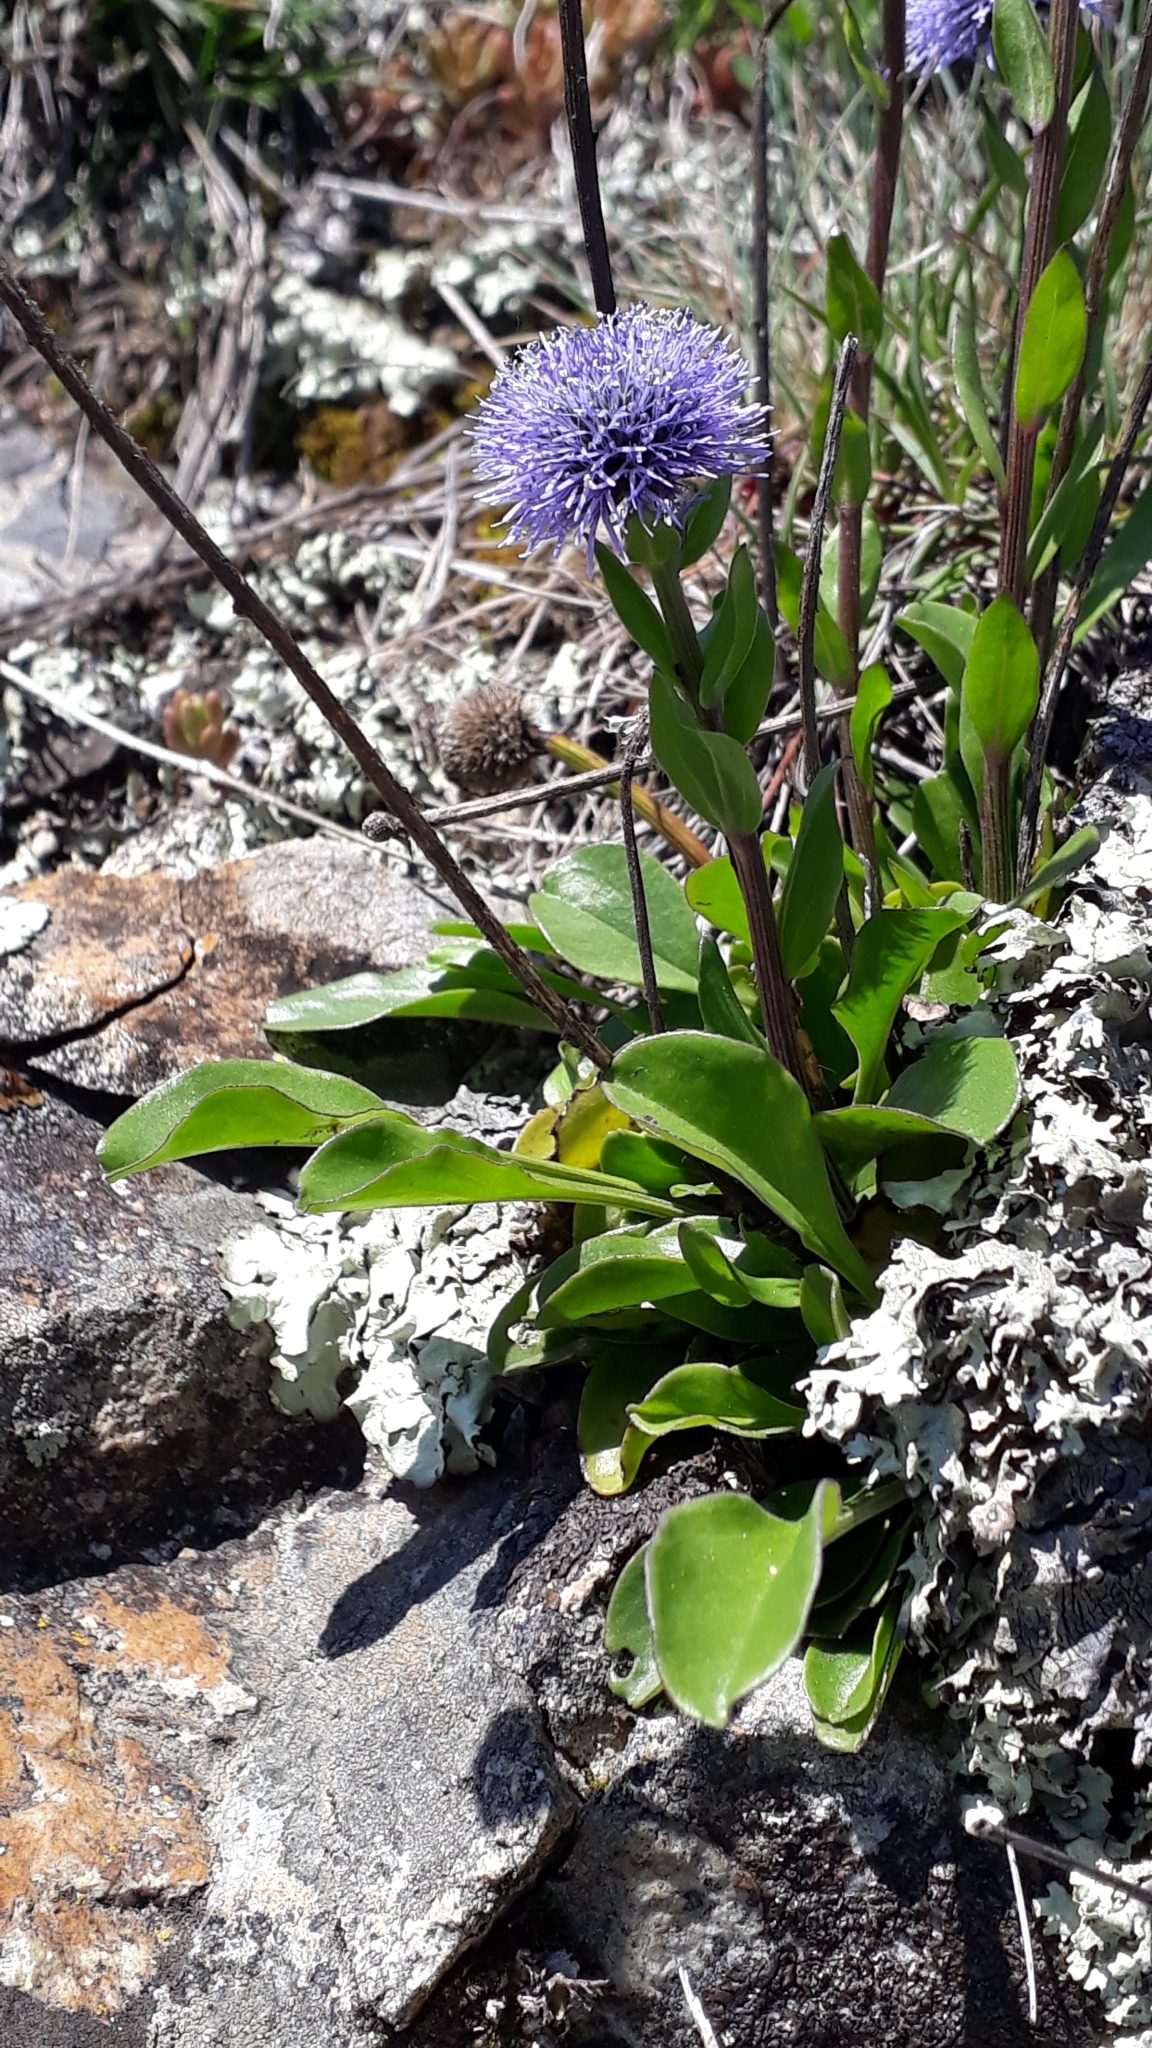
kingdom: Plantae
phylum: Tracheophyta
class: Magnoliopsida
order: Lamiales
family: Plantaginaceae
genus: Globularia
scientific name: Globularia bisnagarica
